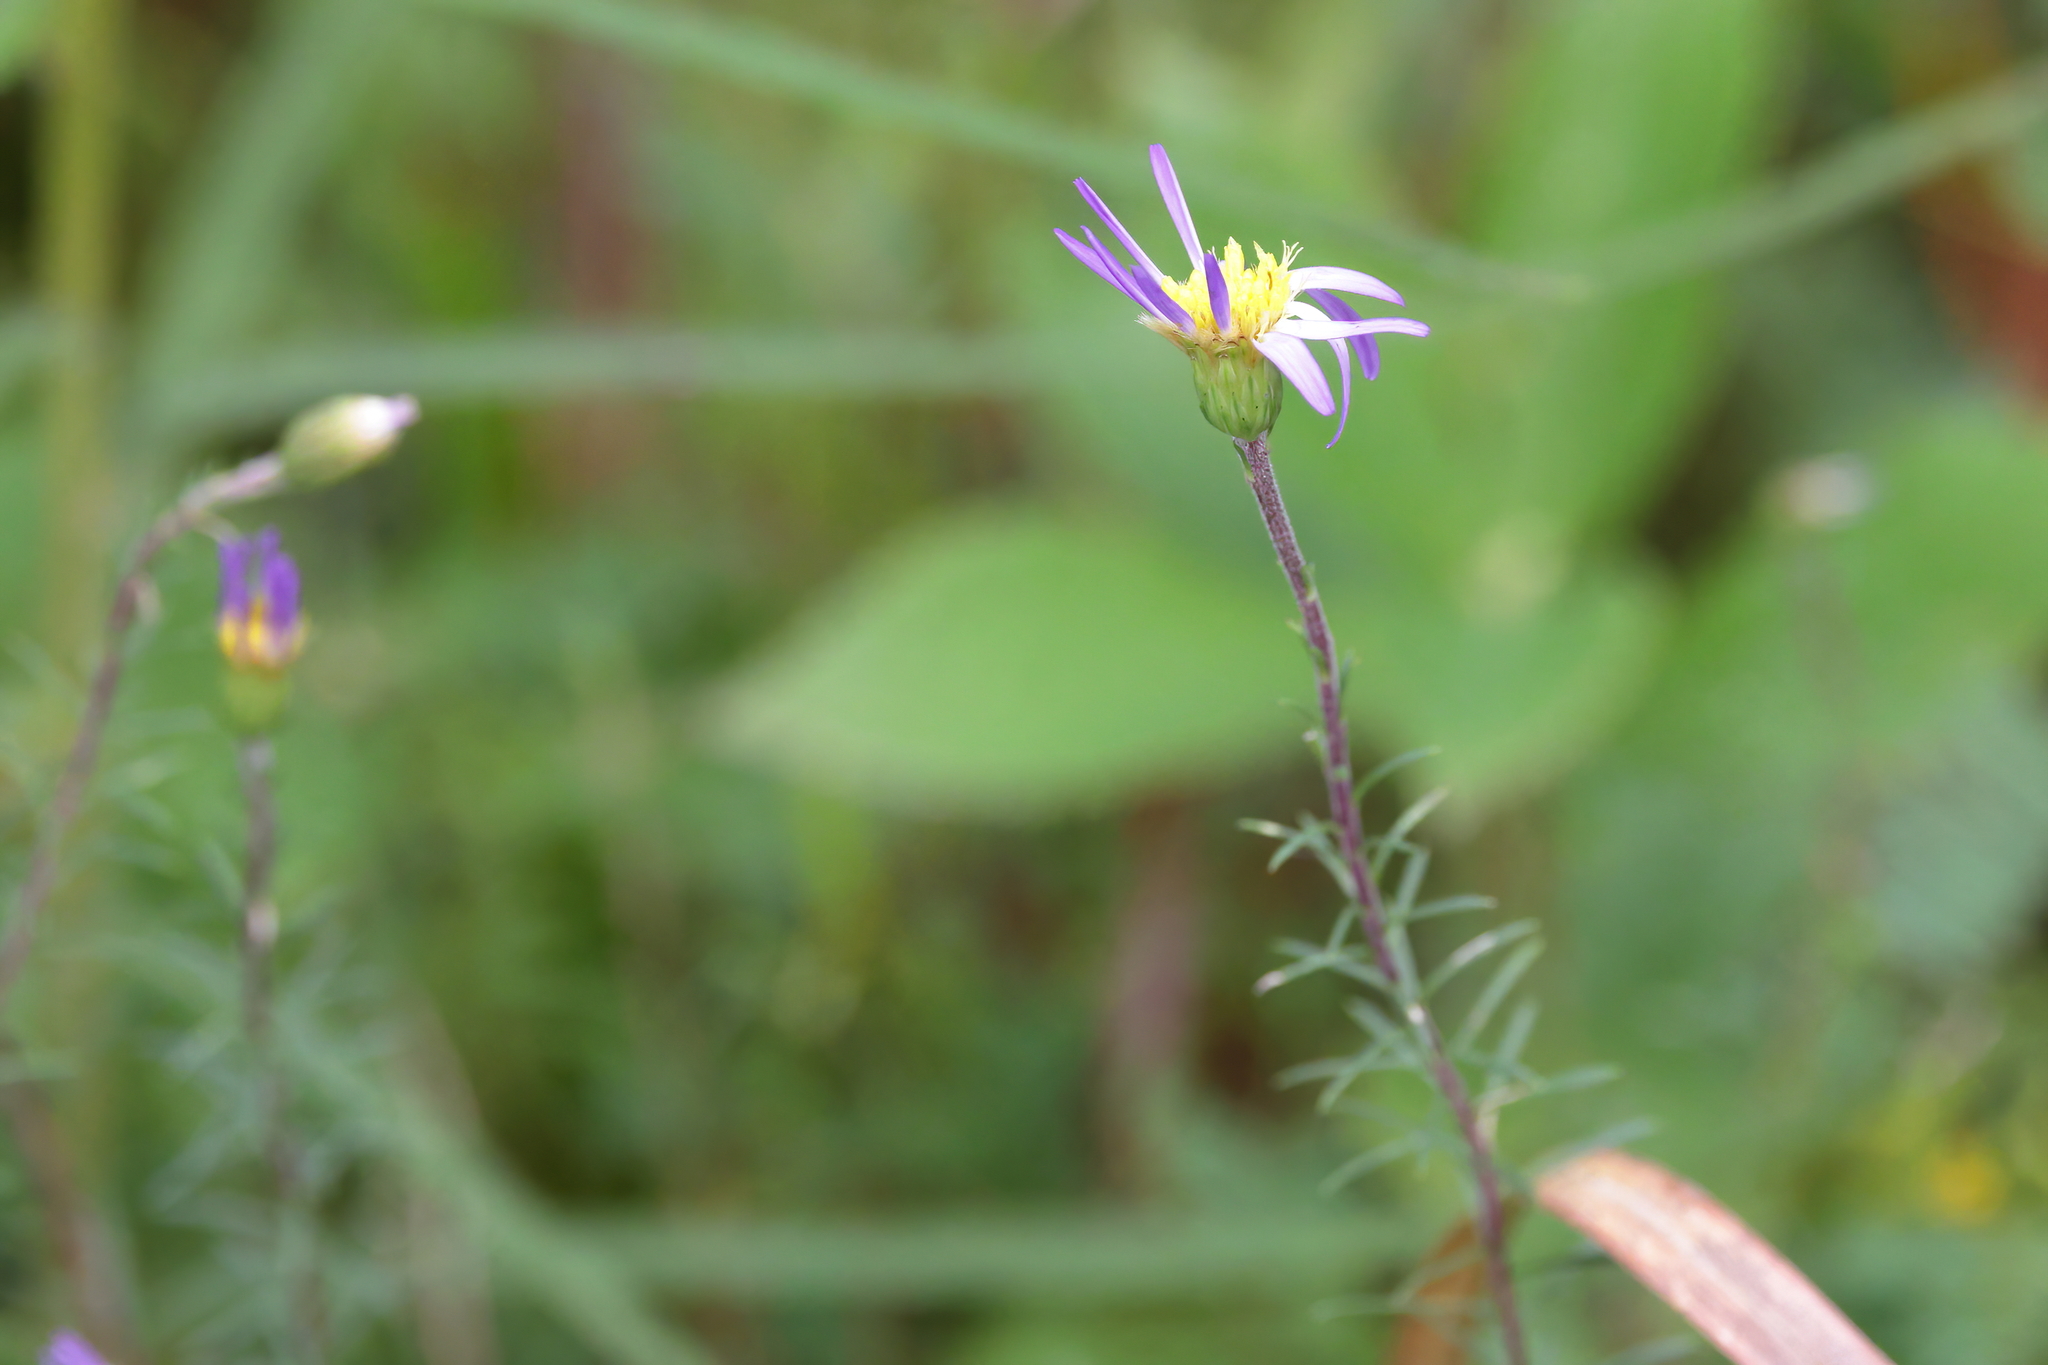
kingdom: Plantae
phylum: Tracheophyta
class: Magnoliopsida
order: Asterales
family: Asteraceae
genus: Ionactis
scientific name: Ionactis repens
